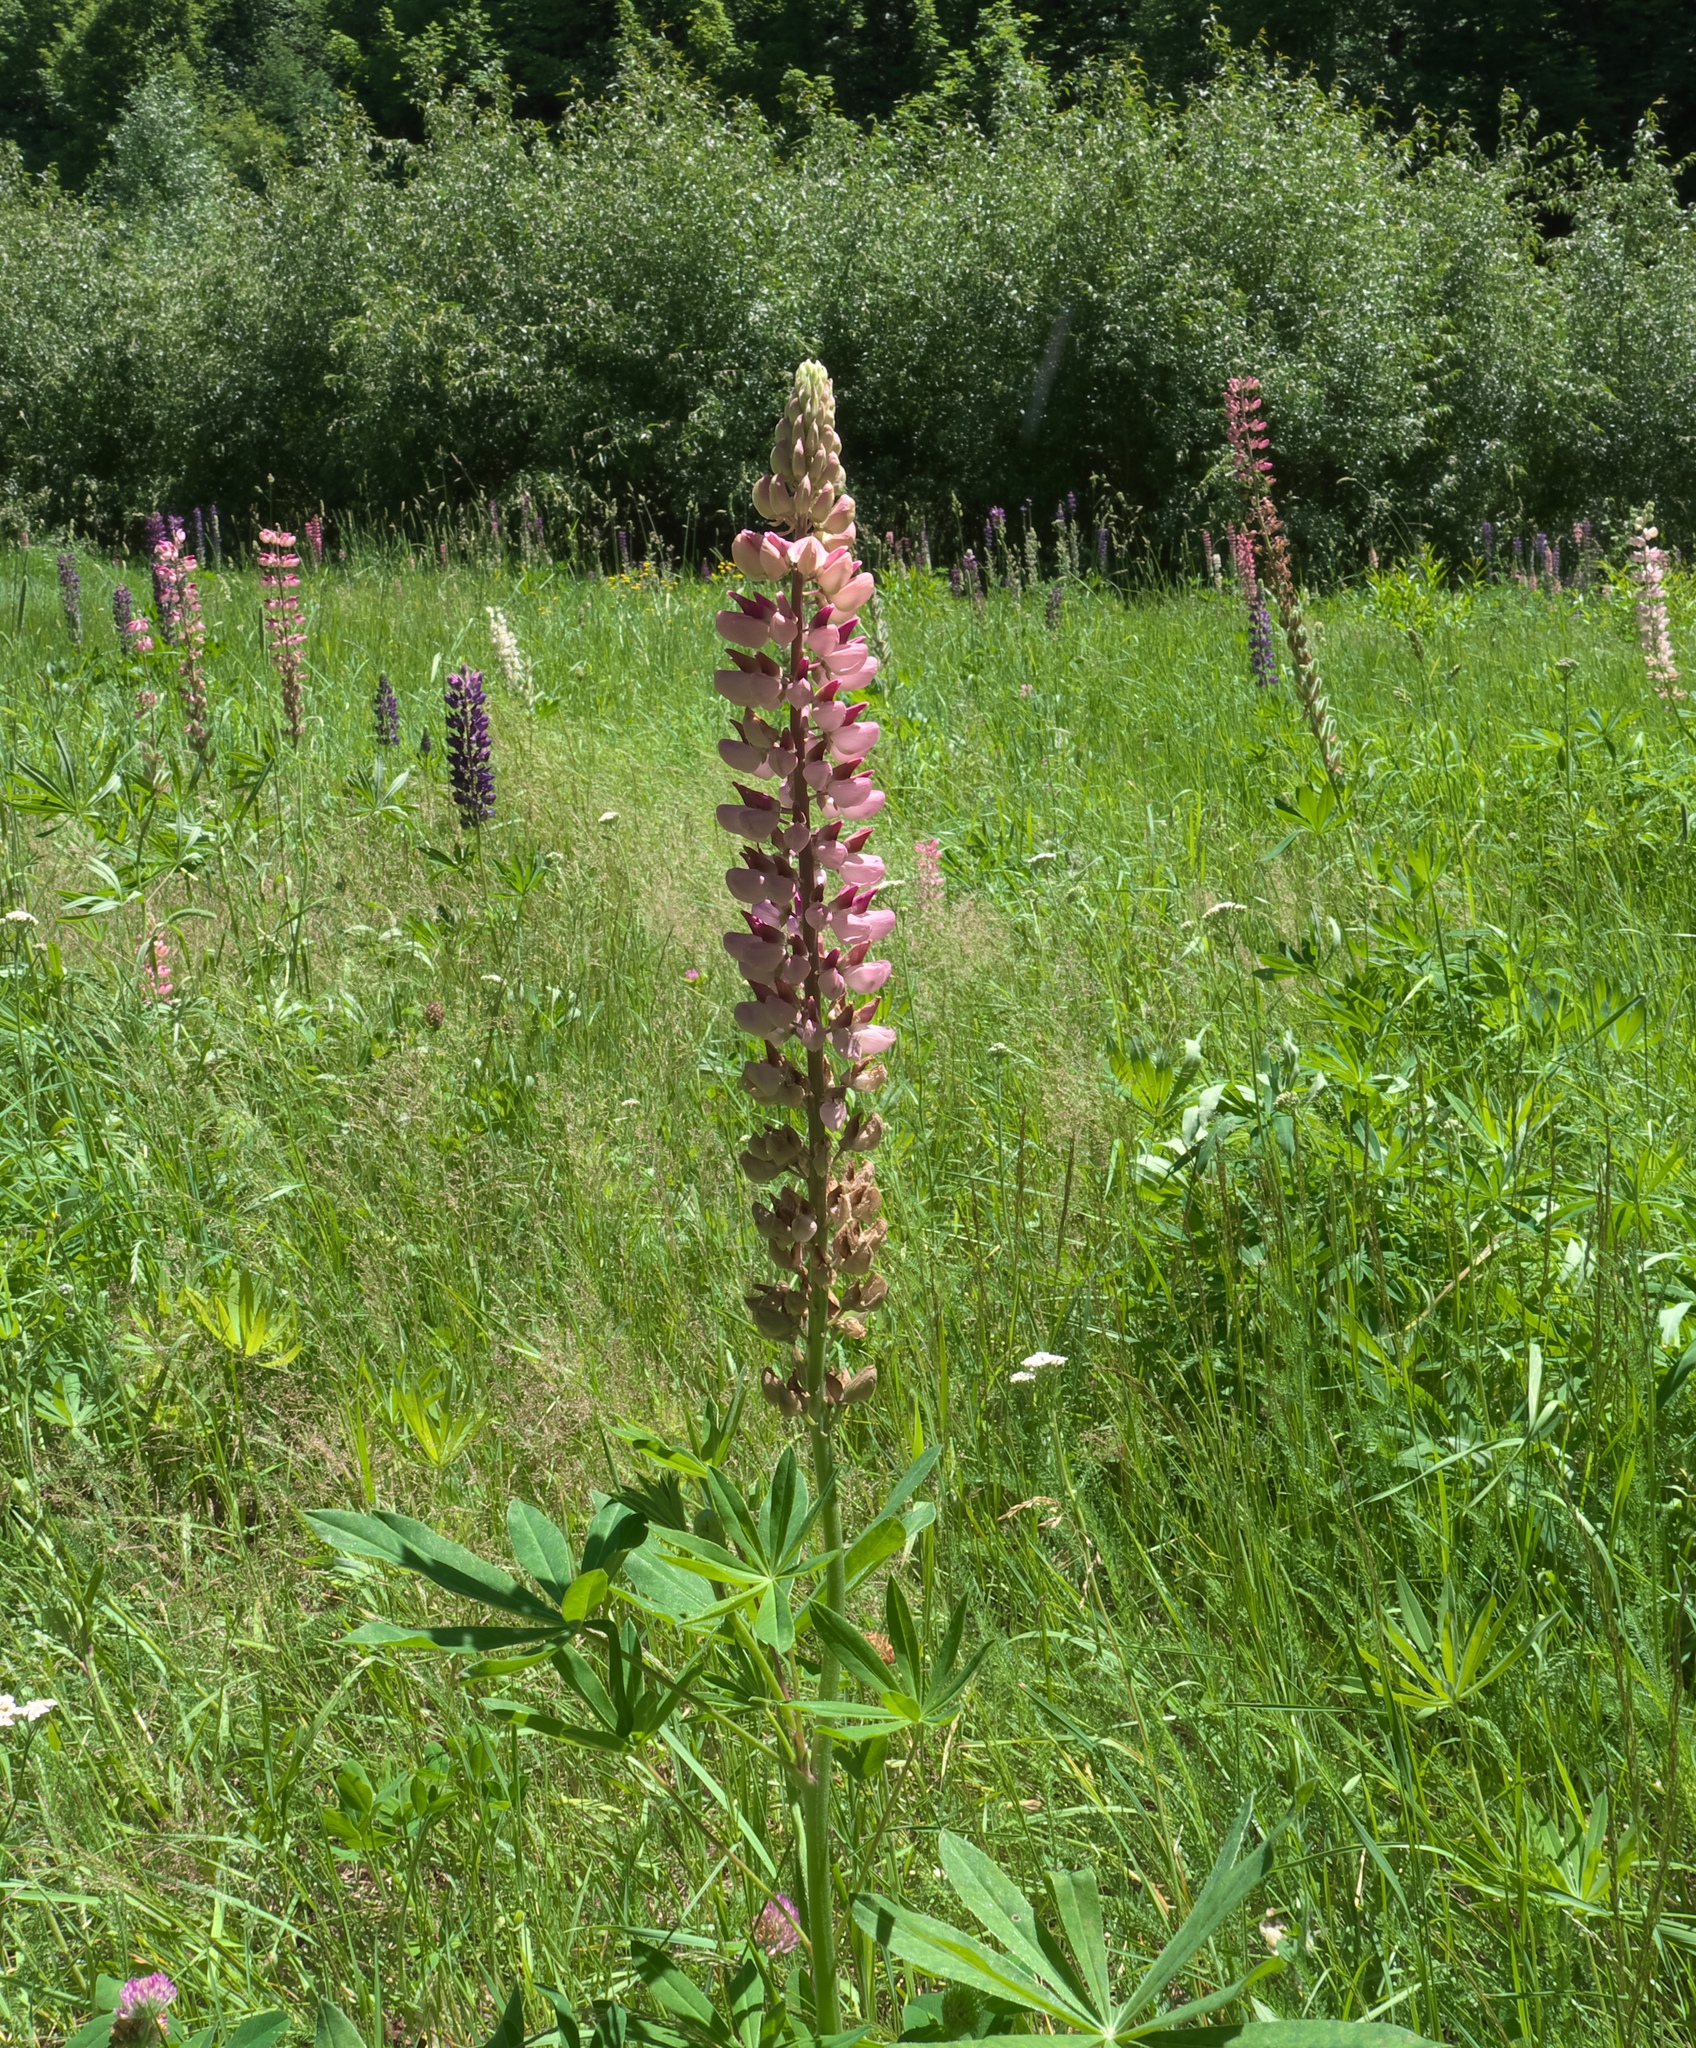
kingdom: Plantae
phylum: Tracheophyta
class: Magnoliopsida
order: Fabales
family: Fabaceae
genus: Lupinus
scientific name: Lupinus polyphyllus
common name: Garden lupin
